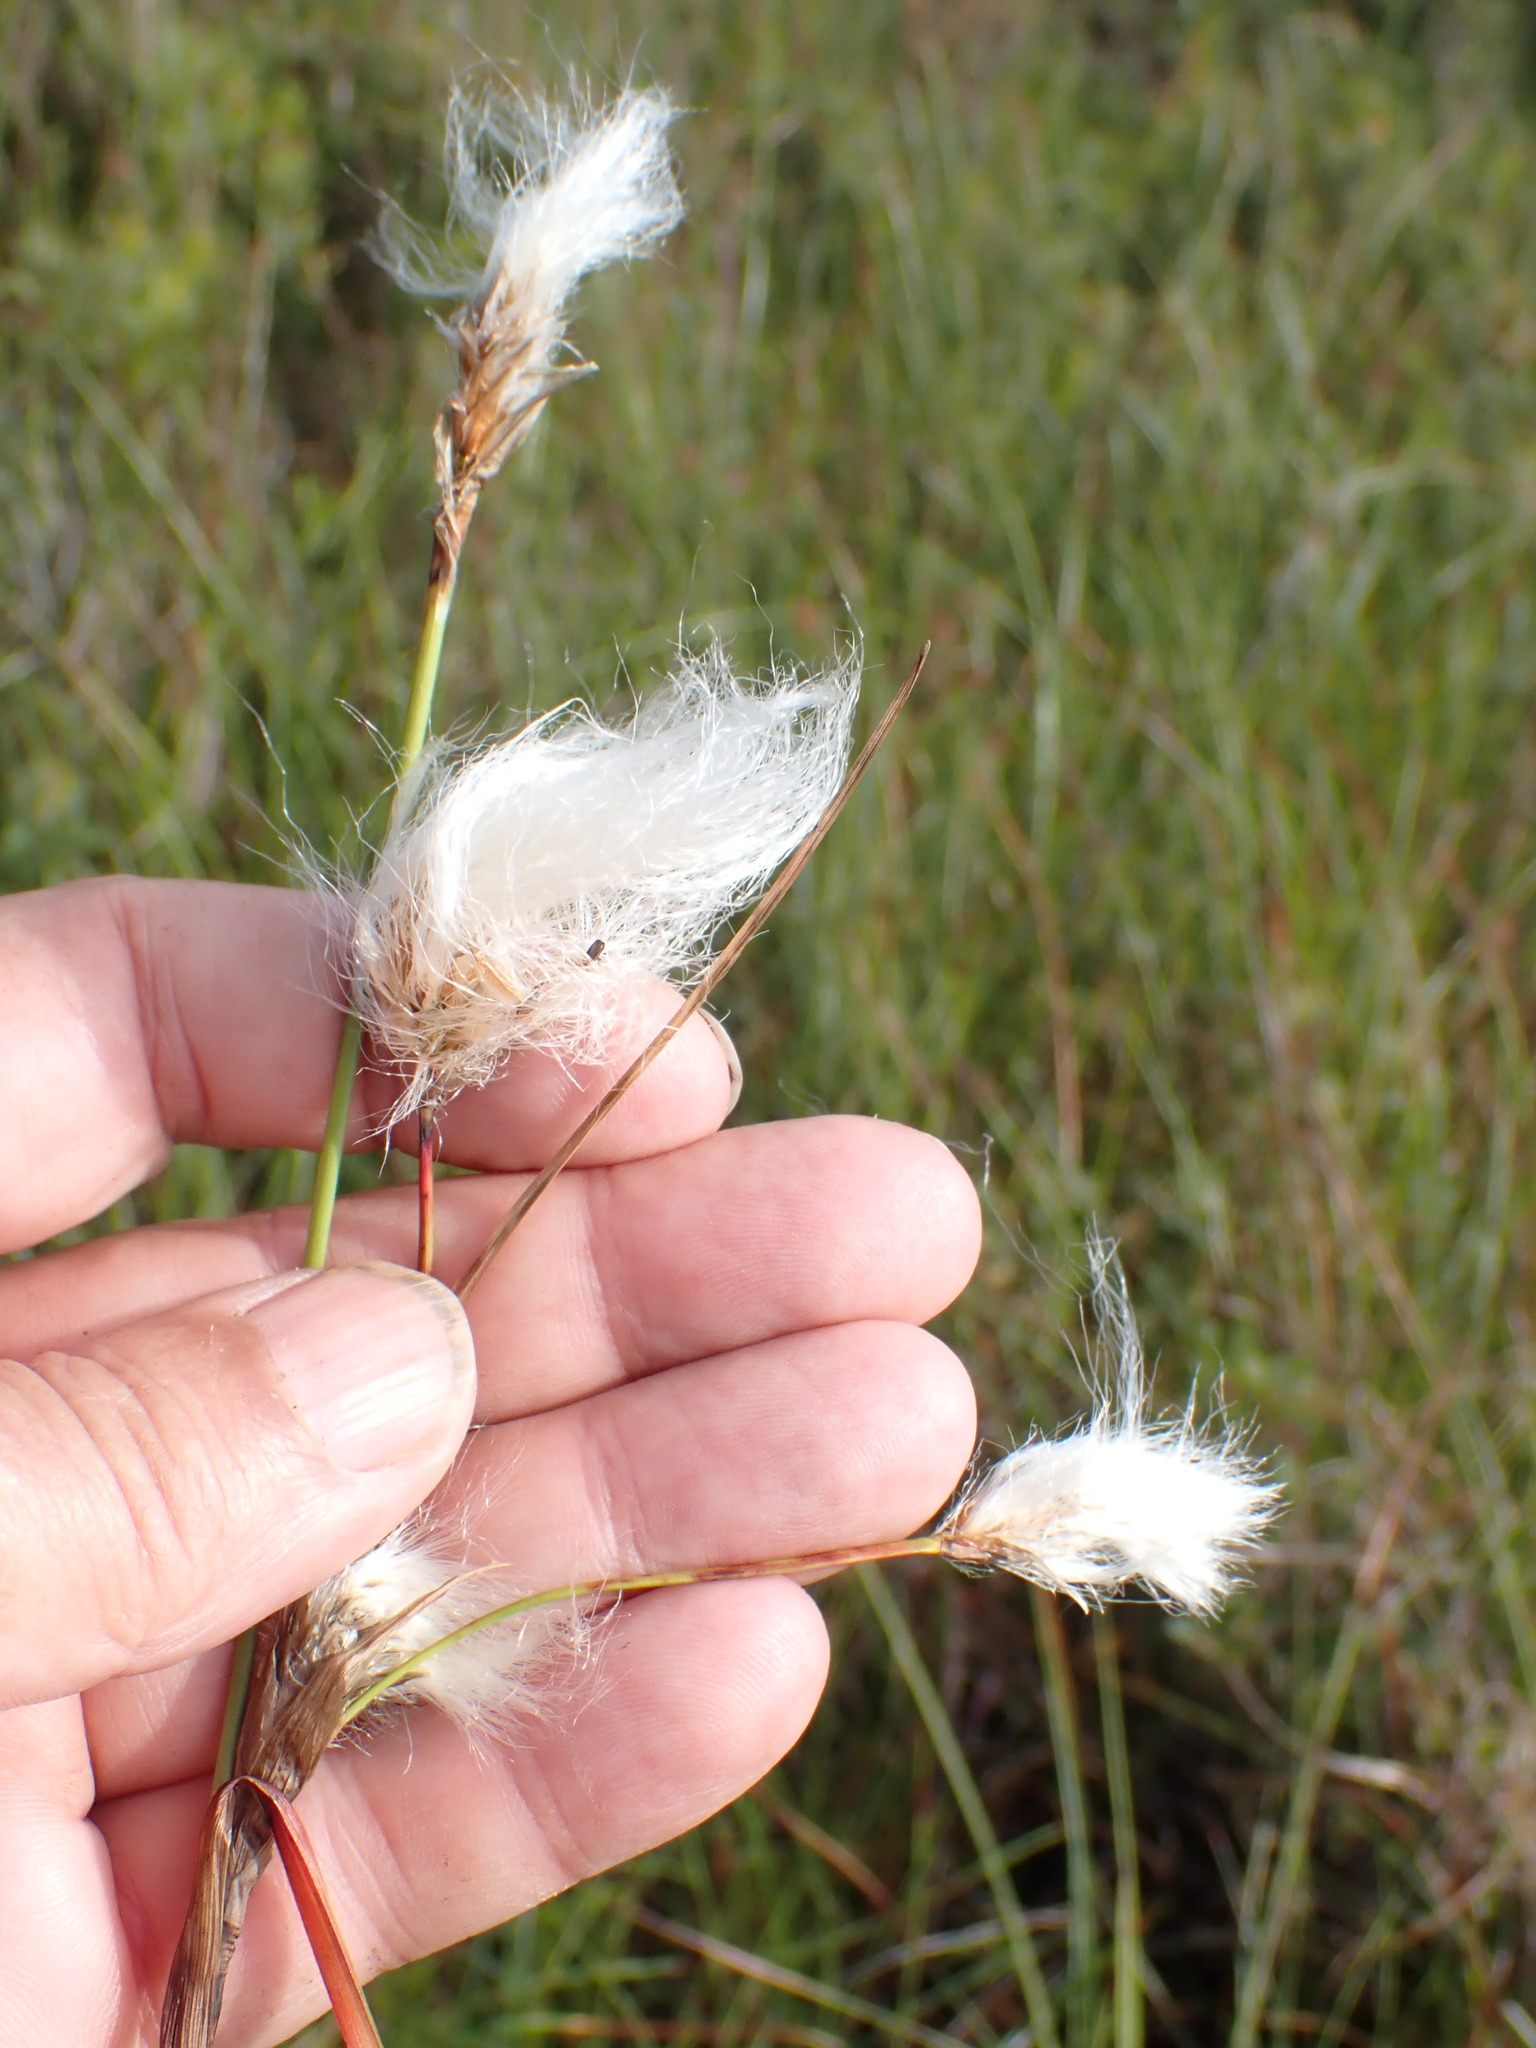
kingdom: Plantae
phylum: Tracheophyta
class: Liliopsida
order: Poales
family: Cyperaceae
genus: Eriophorum
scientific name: Eriophorum angustifolium
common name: Common cottongrass
